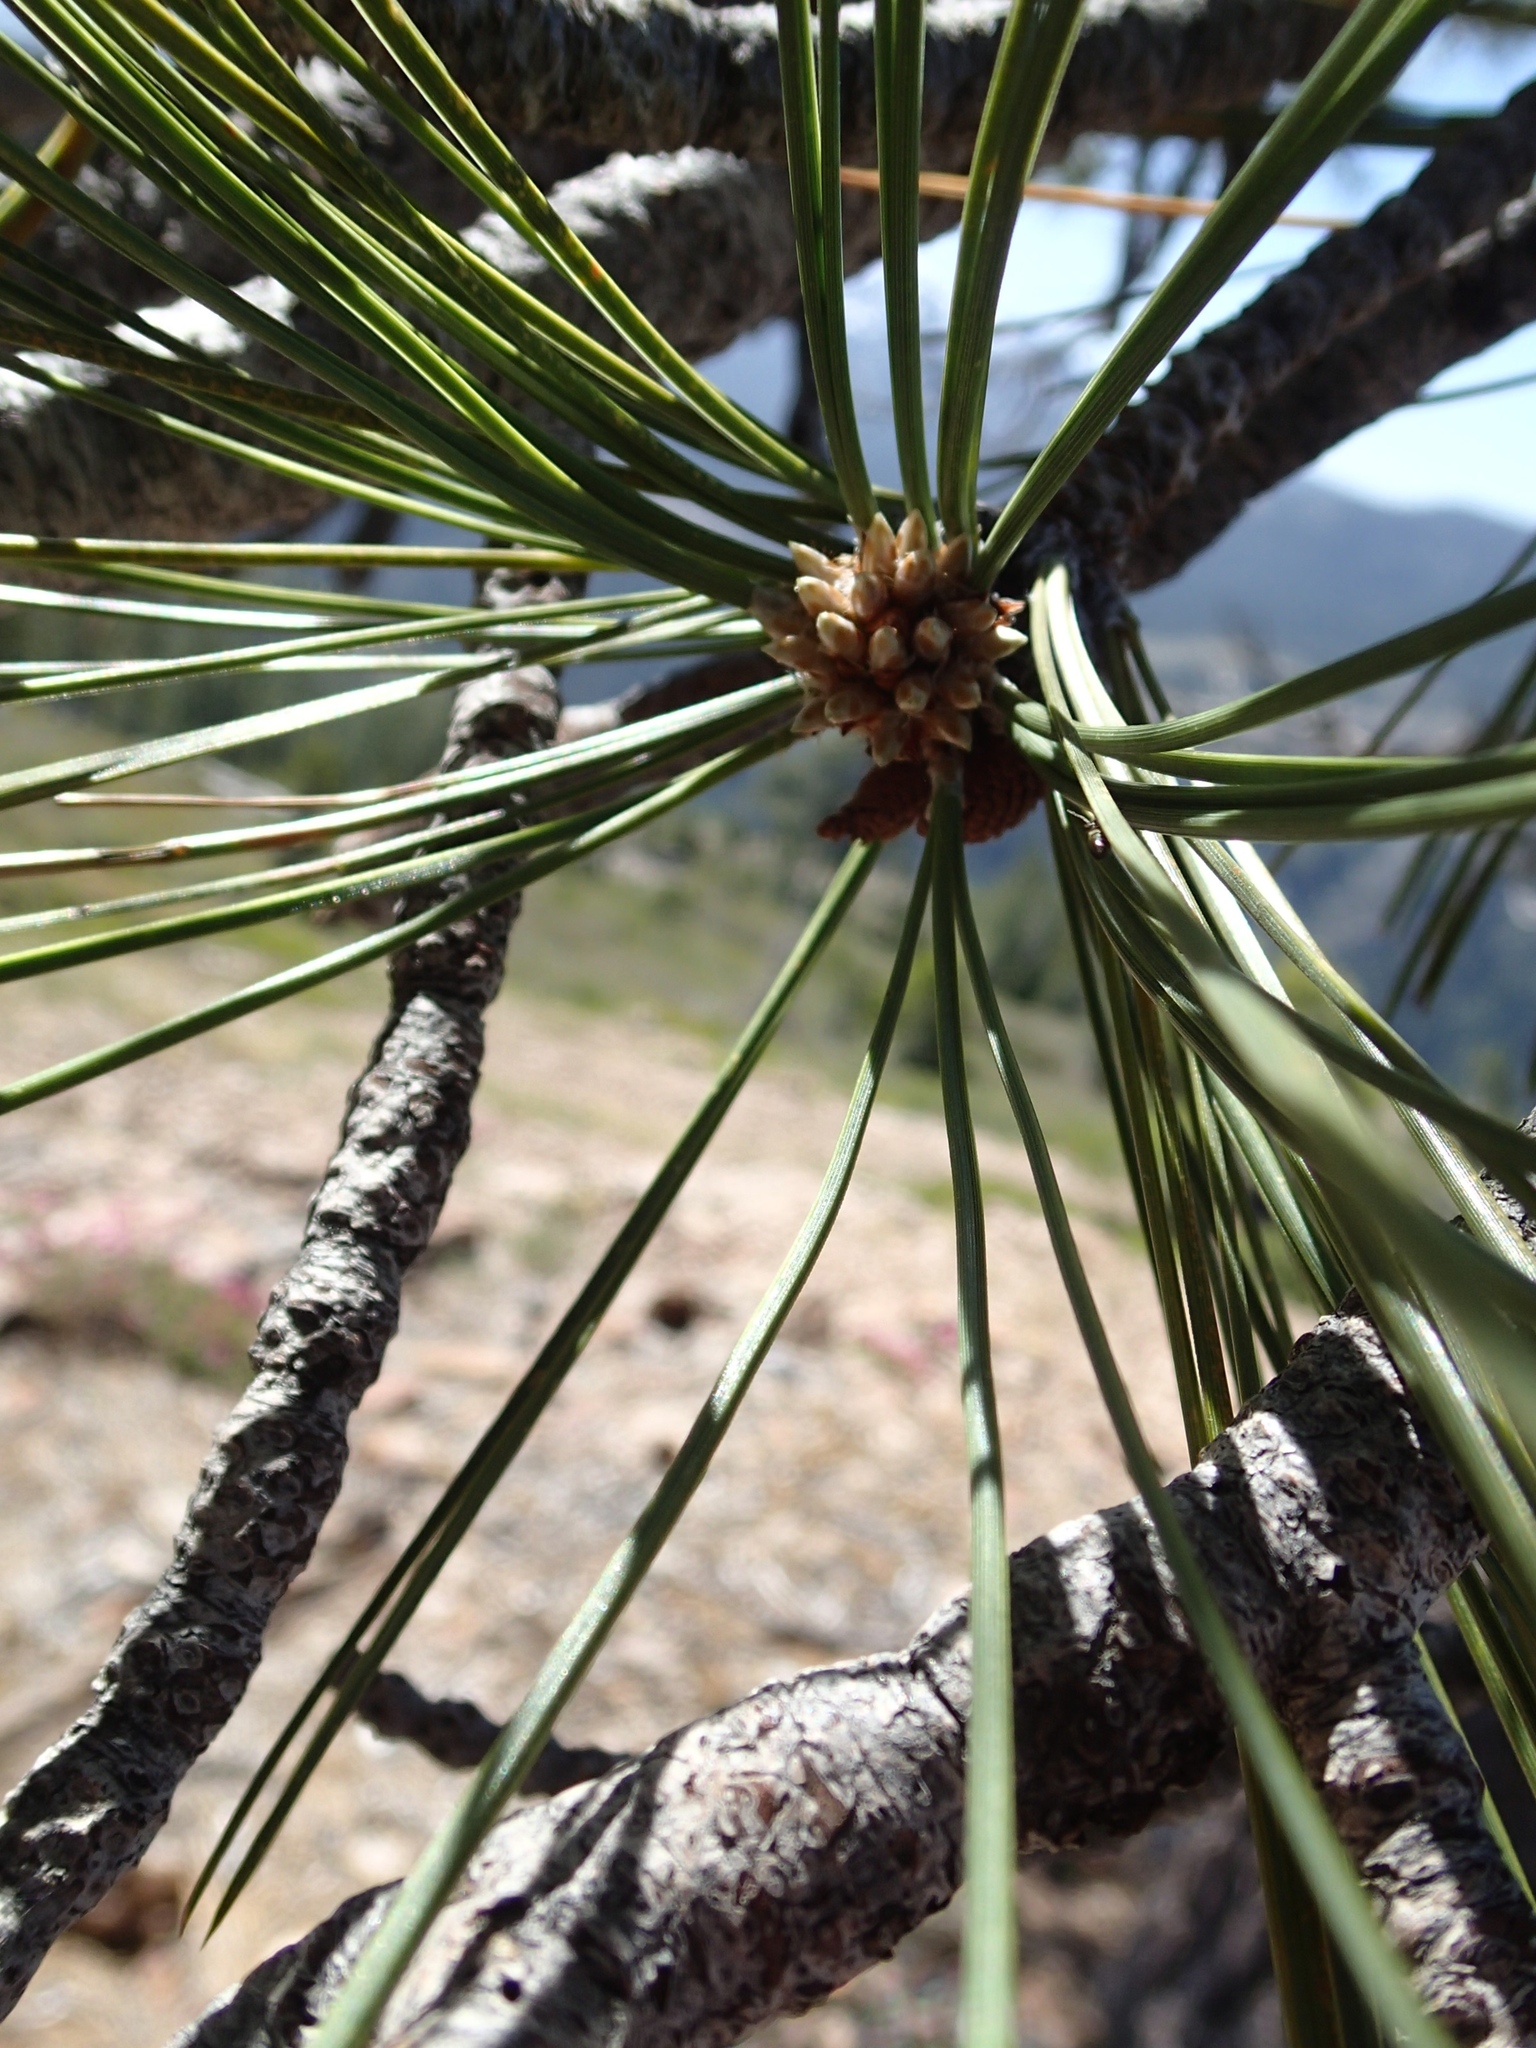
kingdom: Plantae
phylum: Tracheophyta
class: Pinopsida
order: Pinales
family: Pinaceae
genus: Pinus
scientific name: Pinus jeffreyi
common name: Jeffrey pine
